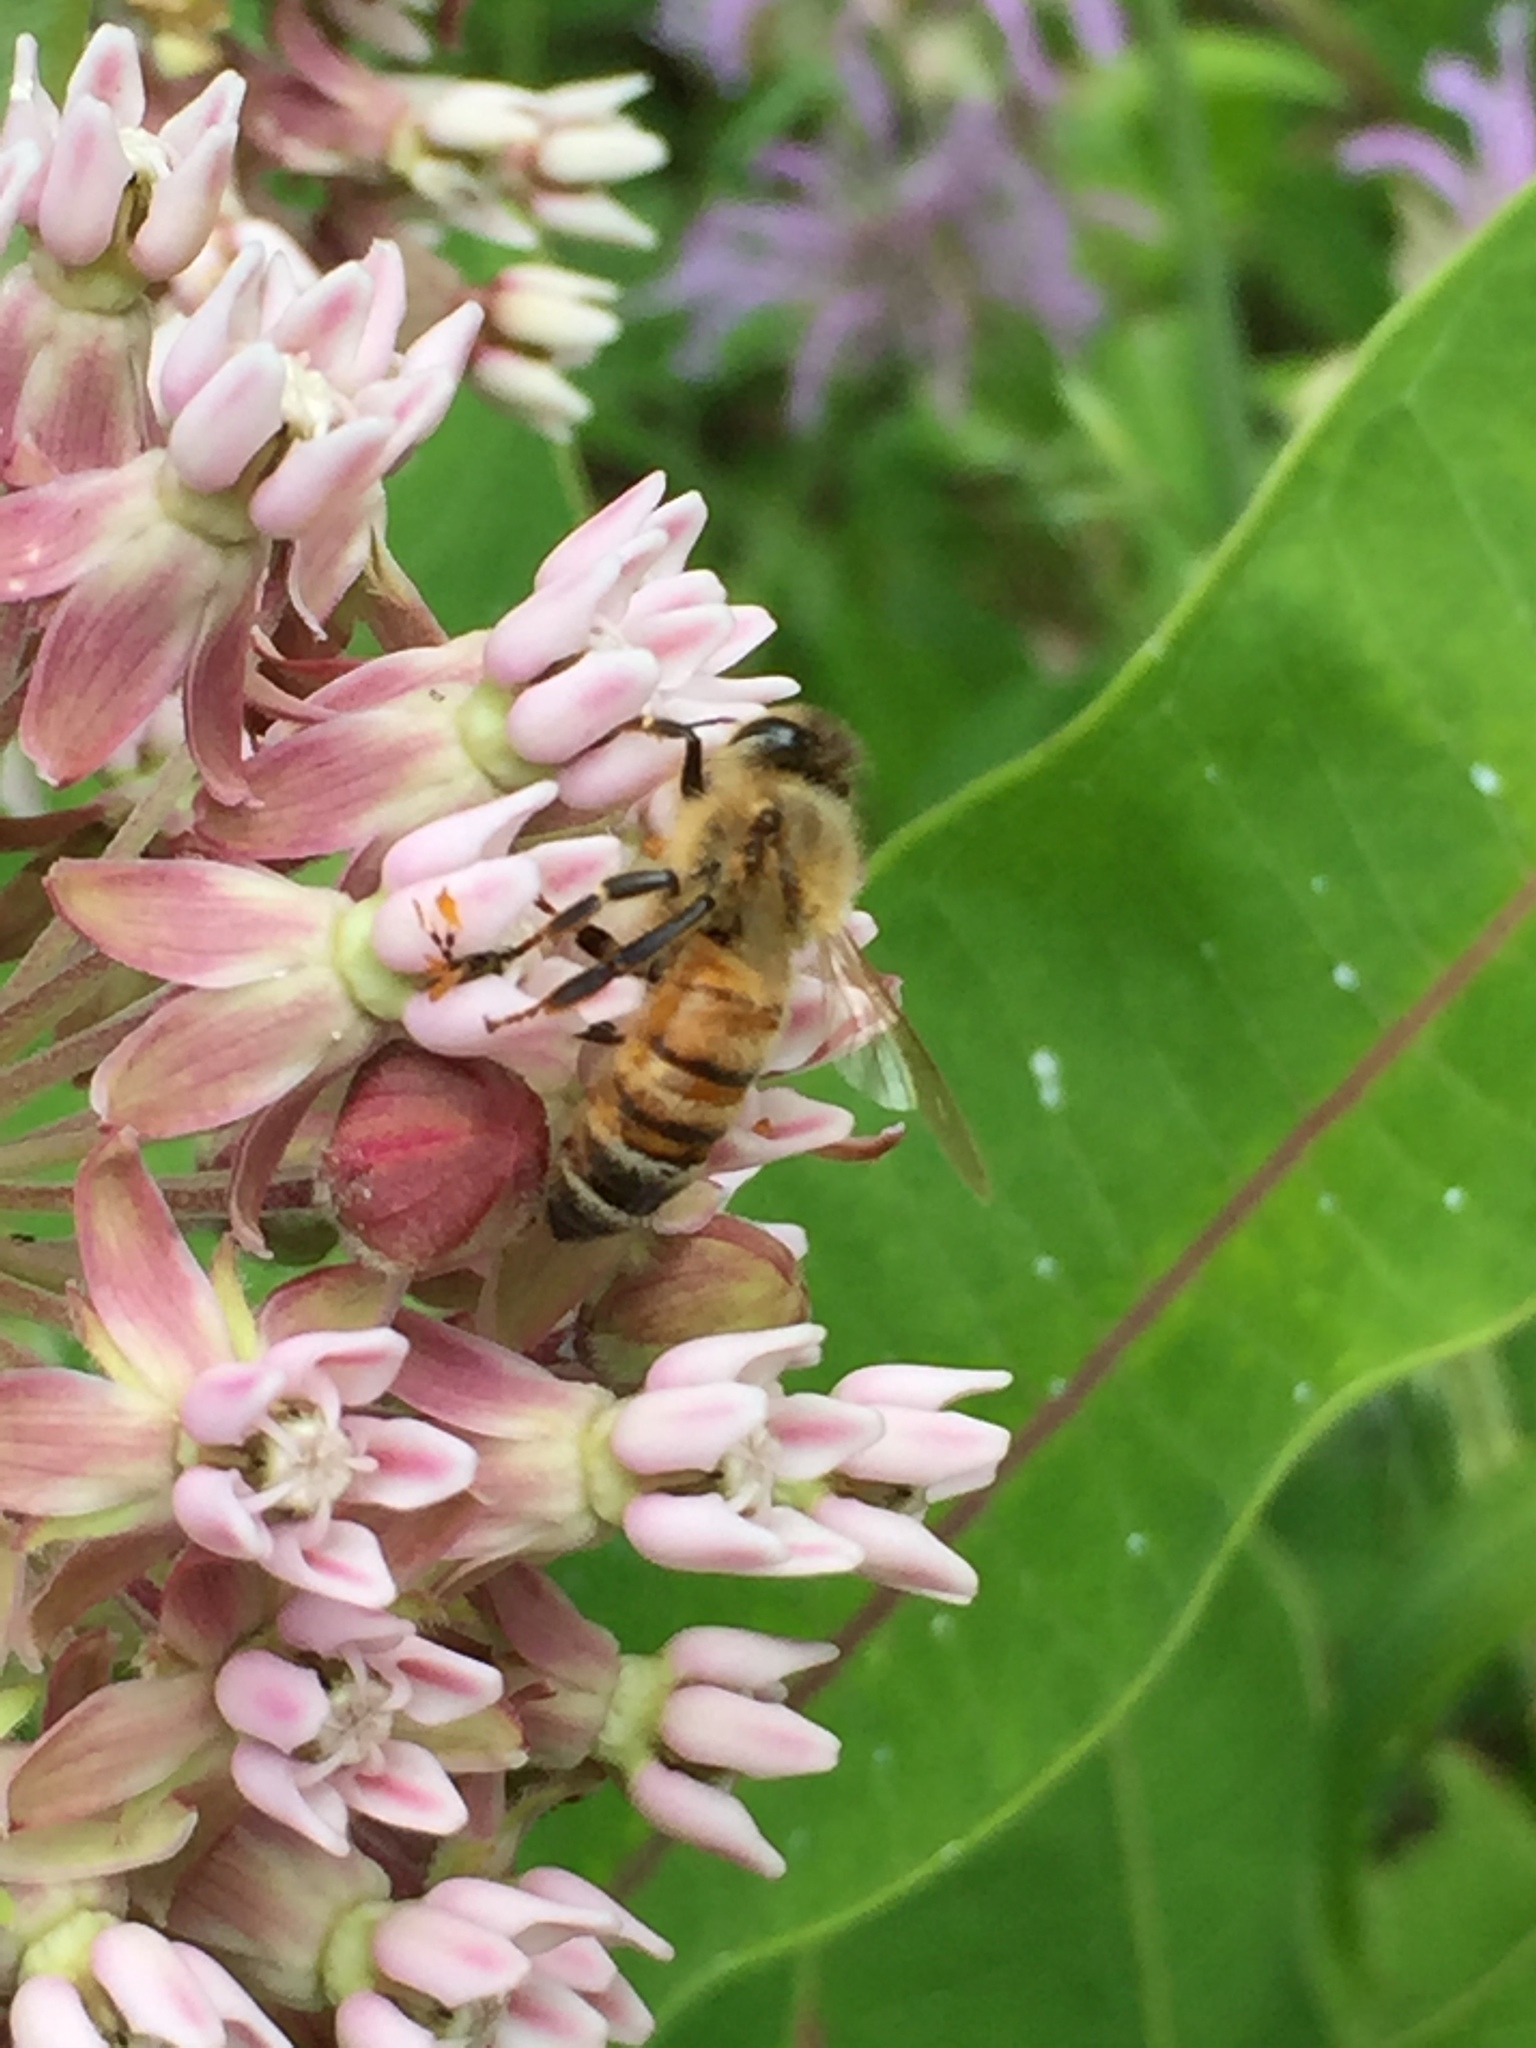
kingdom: Animalia
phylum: Arthropoda
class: Insecta
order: Hymenoptera
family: Apidae
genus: Apis
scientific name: Apis mellifera
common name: Honey bee
